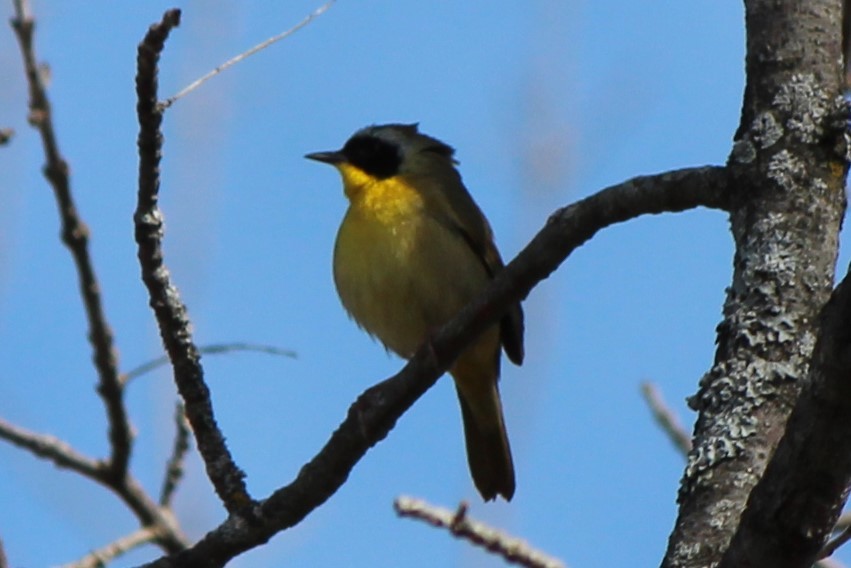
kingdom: Animalia
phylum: Chordata
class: Aves
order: Passeriformes
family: Parulidae
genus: Geothlypis
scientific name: Geothlypis trichas
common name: Common yellowthroat
